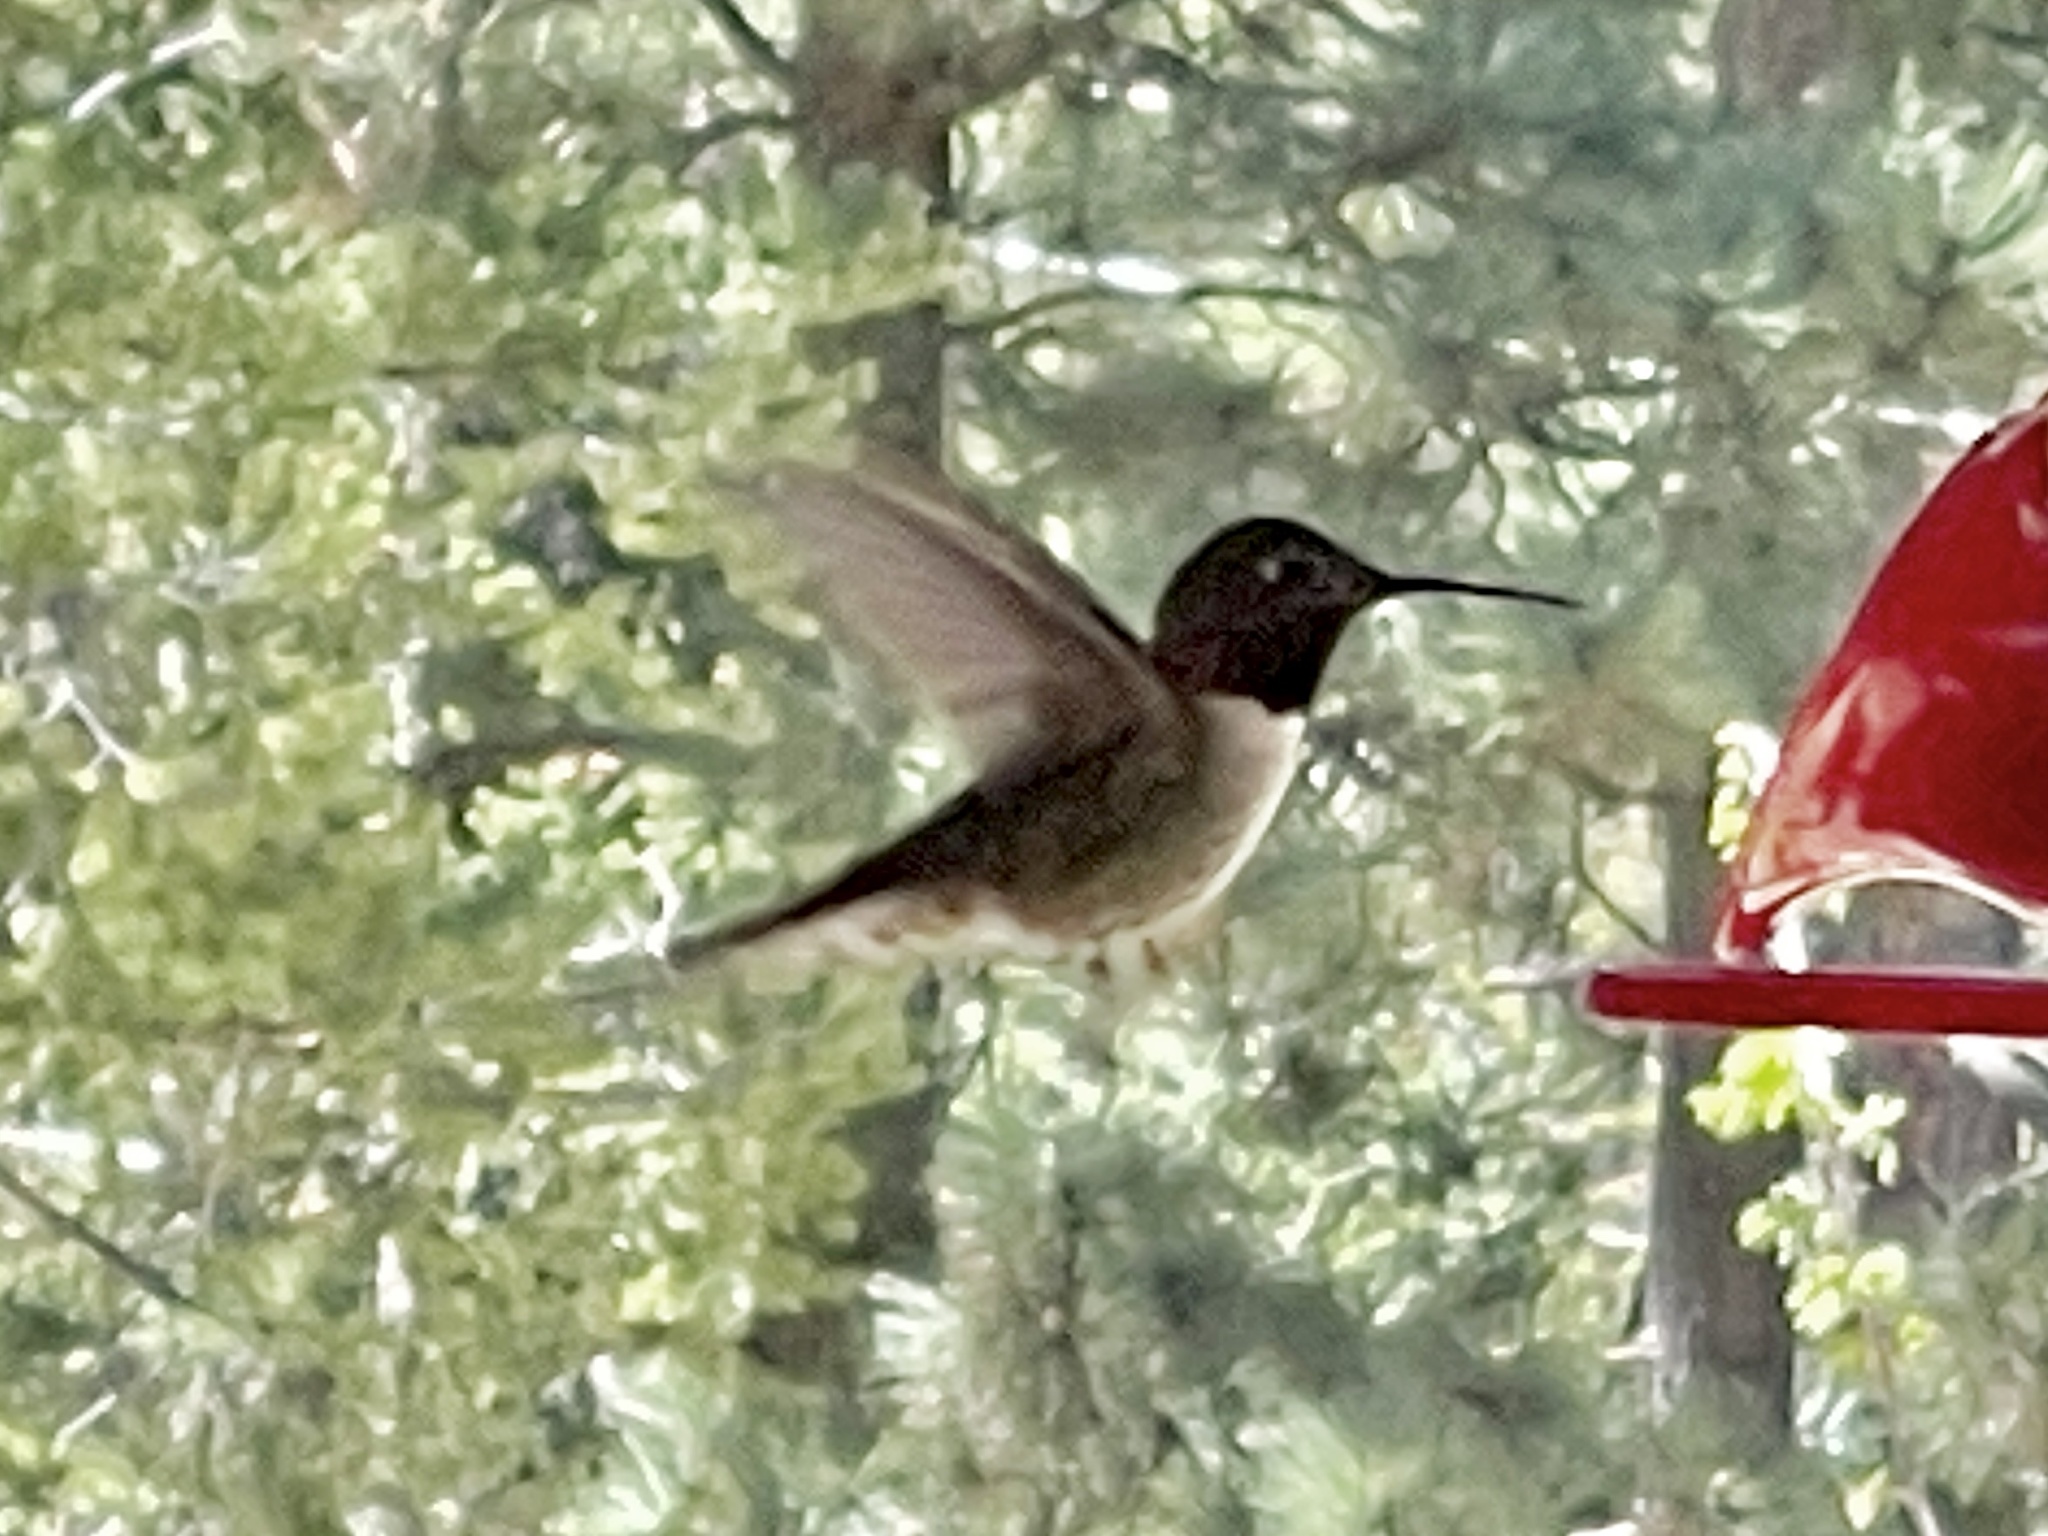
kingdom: Animalia
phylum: Chordata
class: Aves
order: Apodiformes
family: Trochilidae
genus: Selasphorus
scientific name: Selasphorus platycercus
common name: Broad-tailed hummingbird
